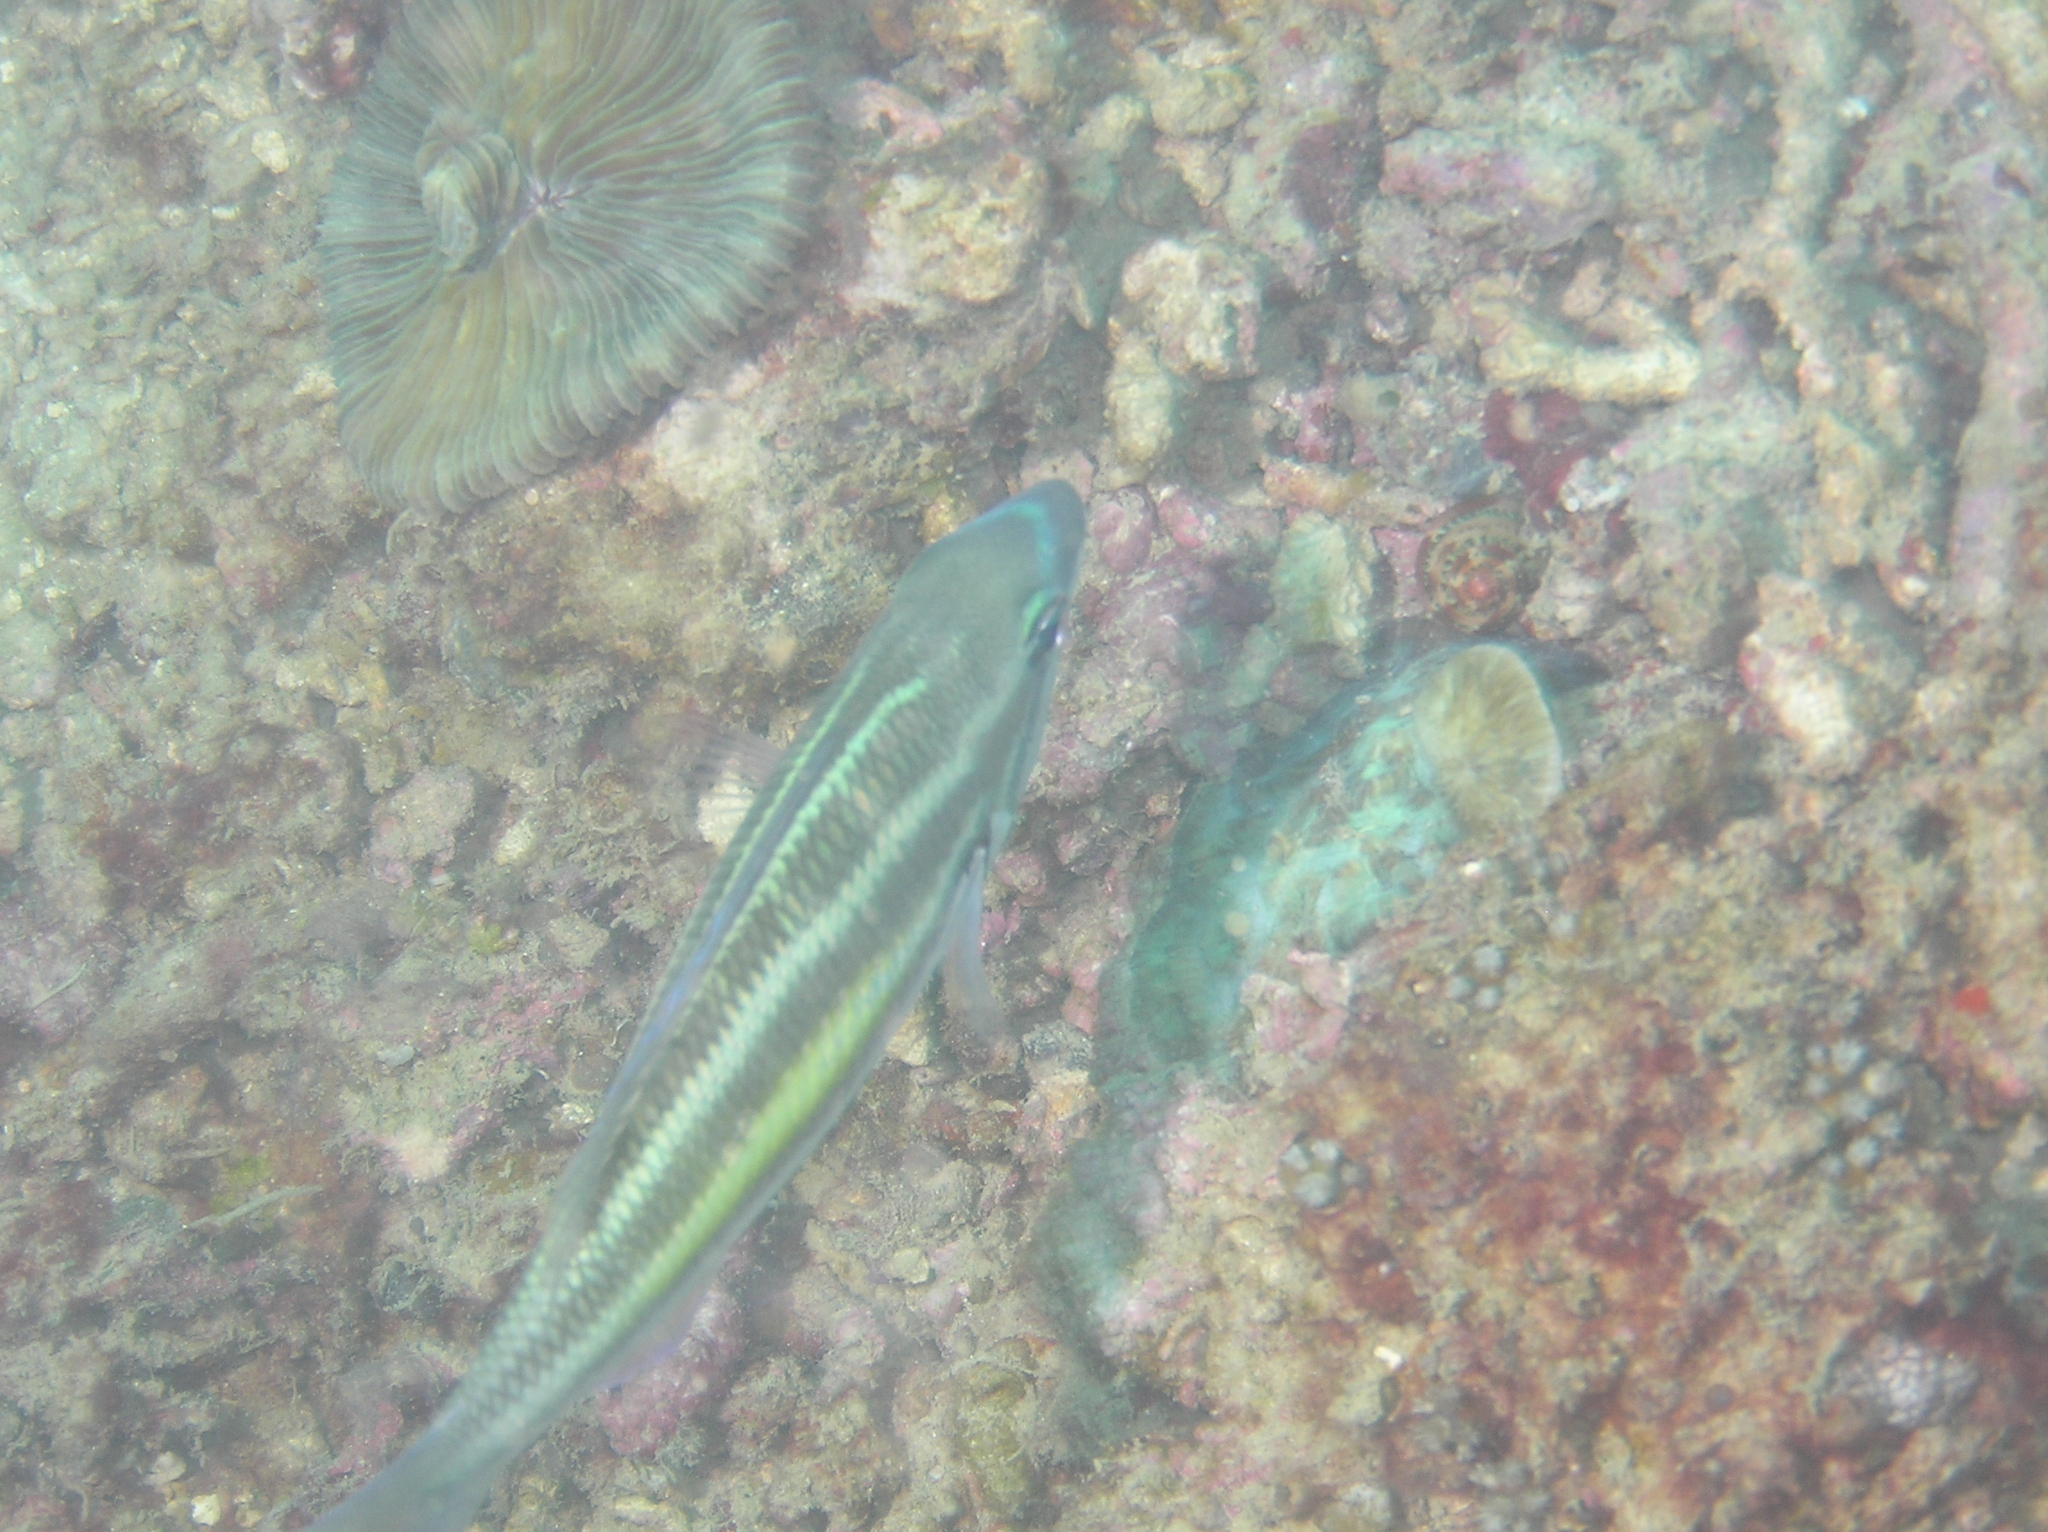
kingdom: Animalia
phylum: Chordata
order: Perciformes
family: Nemipteridae
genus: Pentapodus
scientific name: Pentapodus trivittatus
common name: Three-striped whiptail
